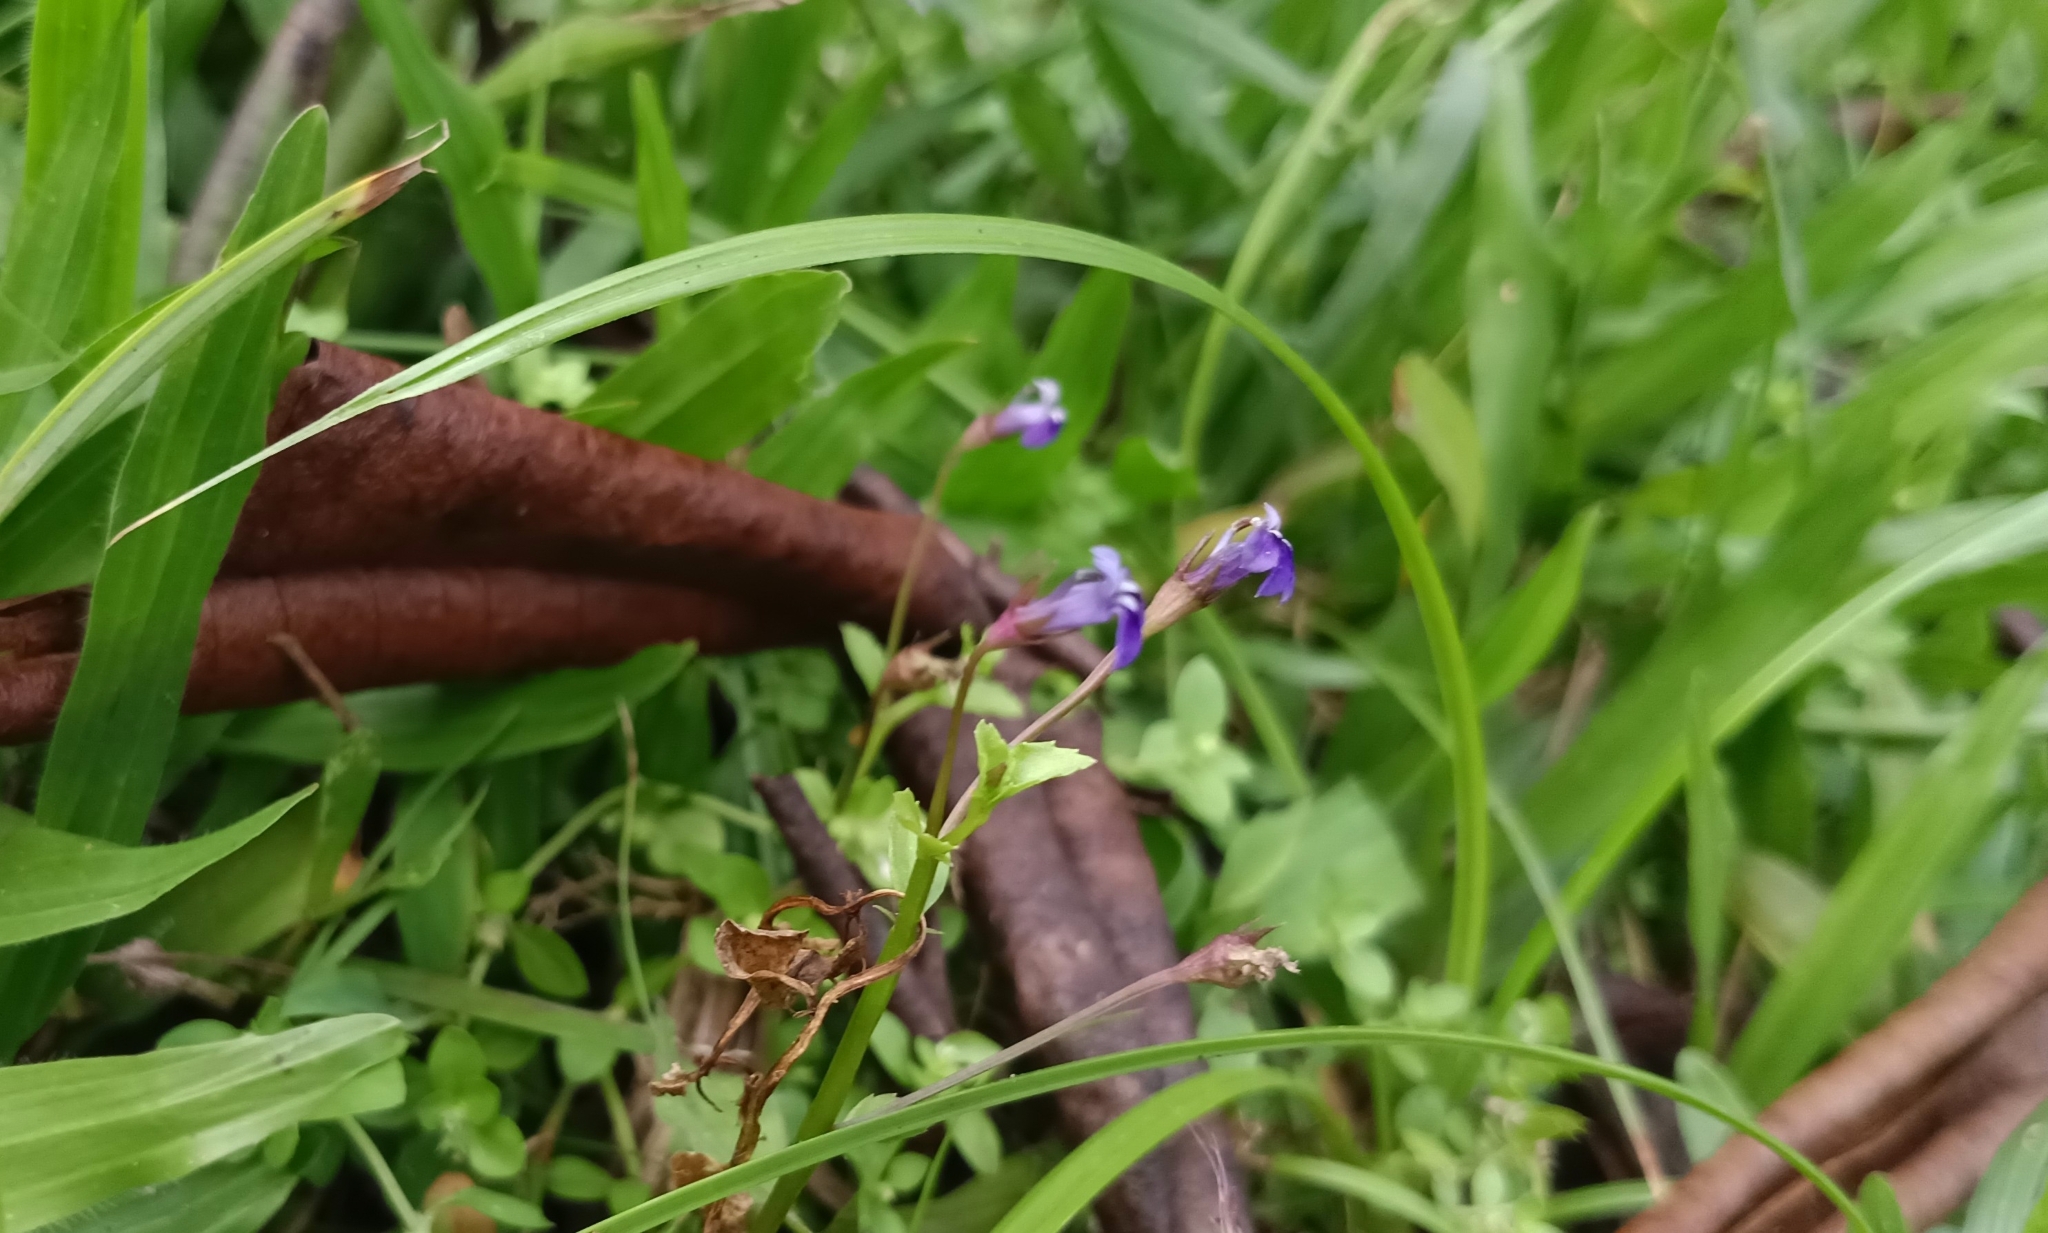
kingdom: Plantae
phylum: Tracheophyta
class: Magnoliopsida
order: Asterales
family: Campanulaceae
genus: Lobelia
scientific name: Lobelia alsinoides
